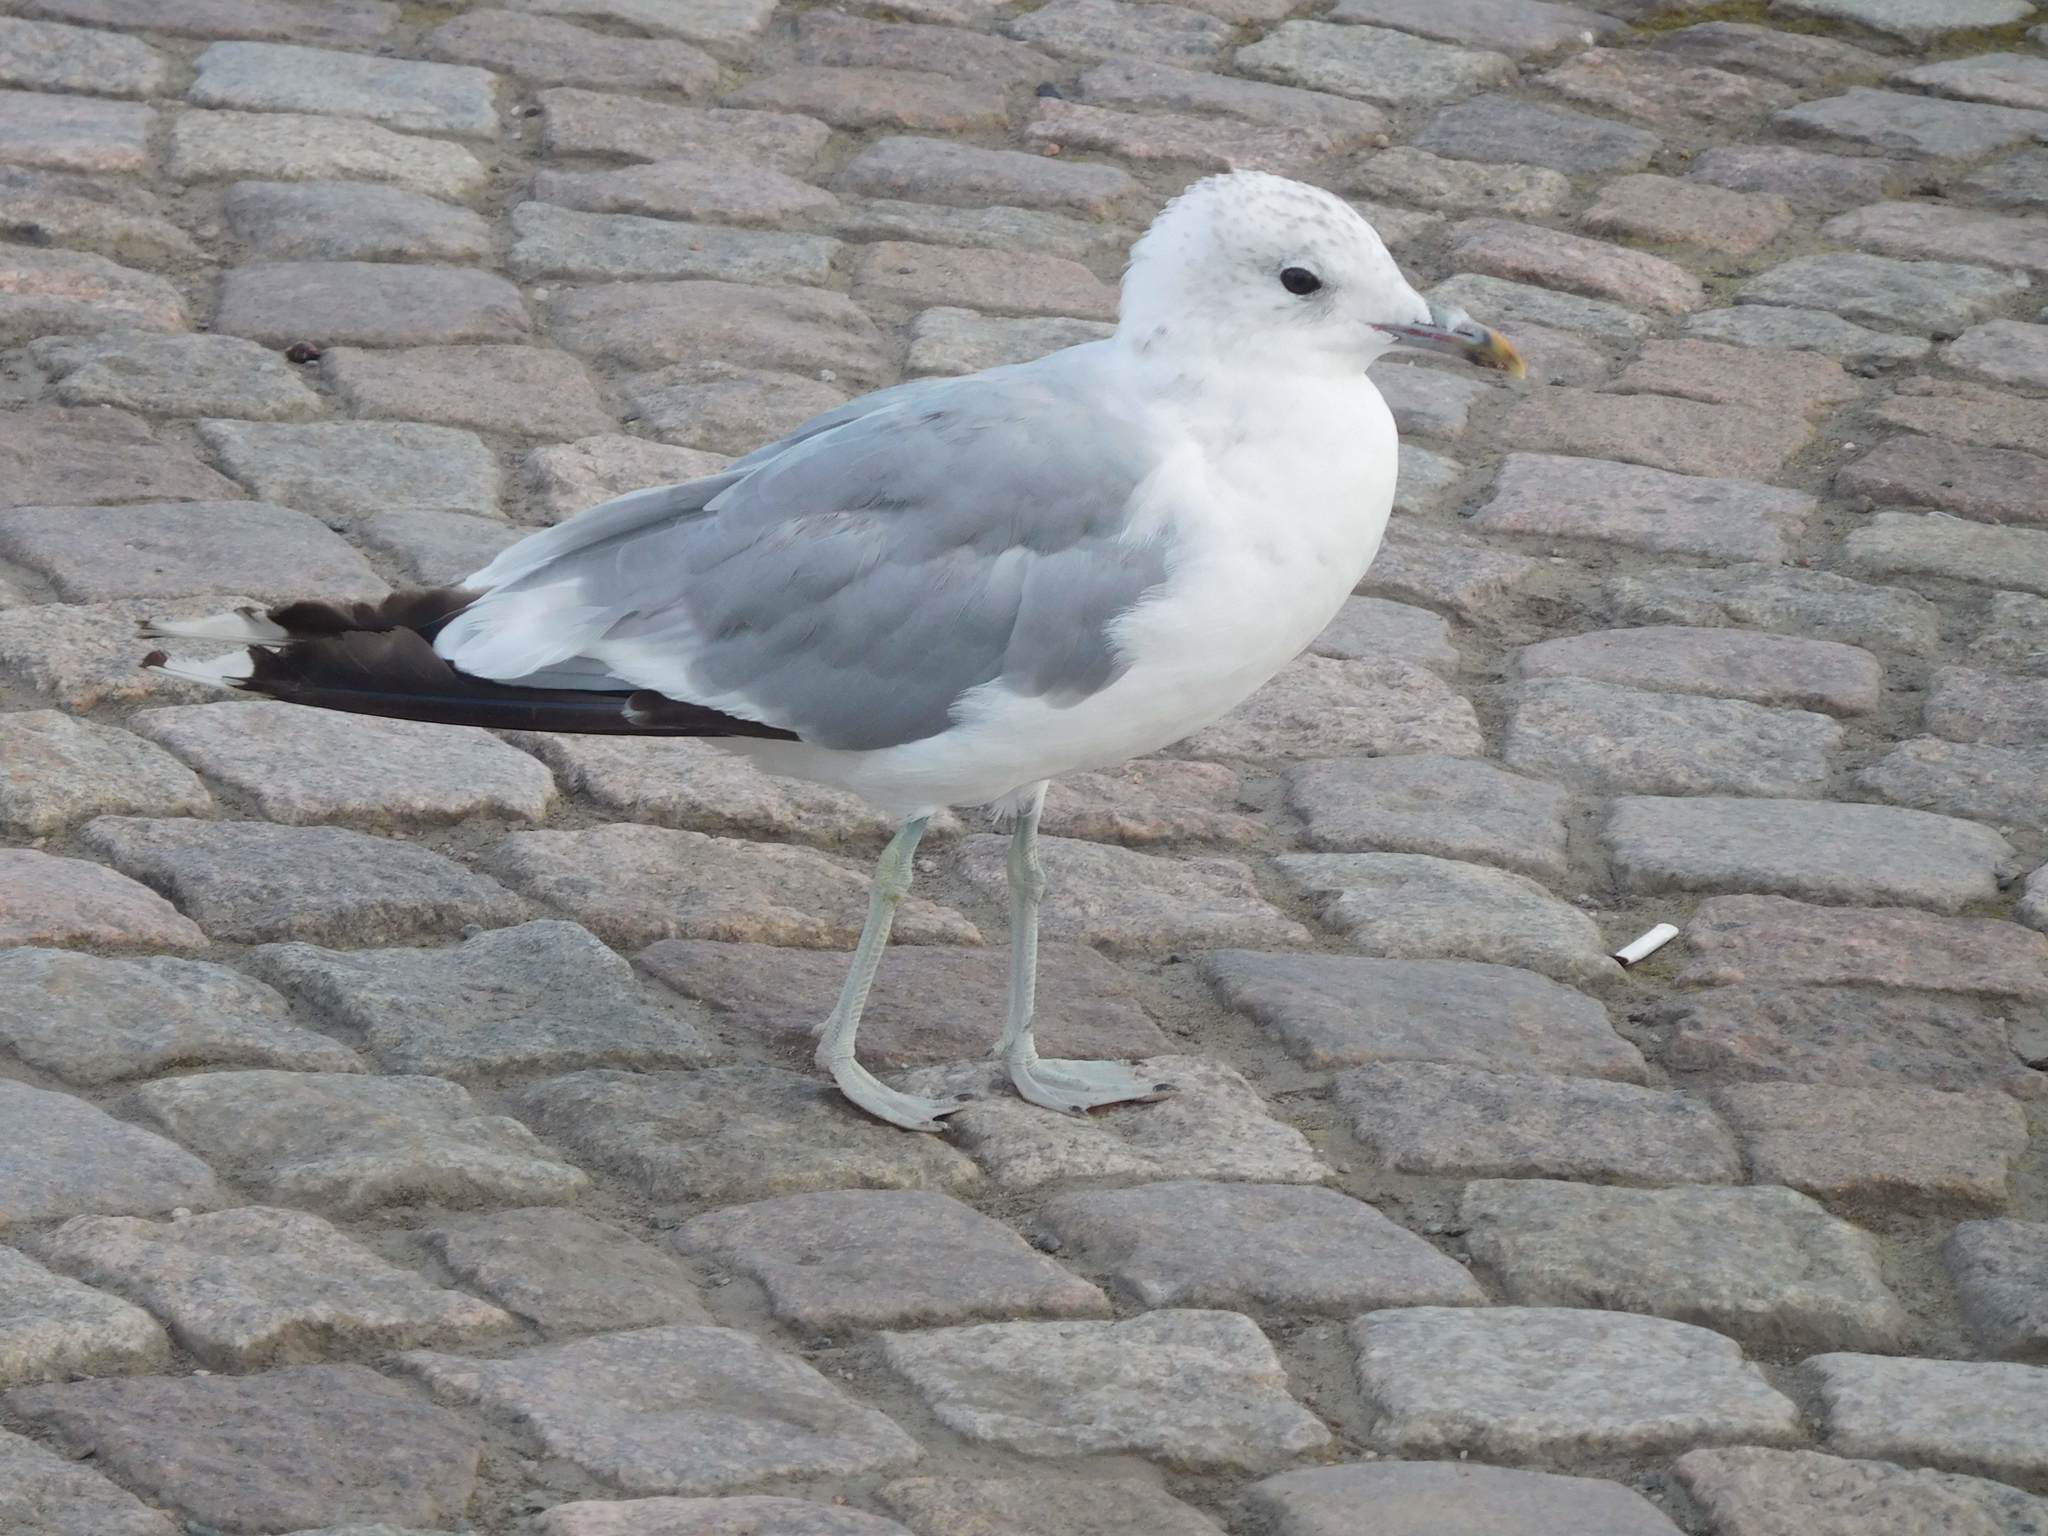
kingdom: Animalia
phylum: Chordata
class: Aves
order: Charadriiformes
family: Laridae
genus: Larus
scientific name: Larus canus
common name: Mew gull
